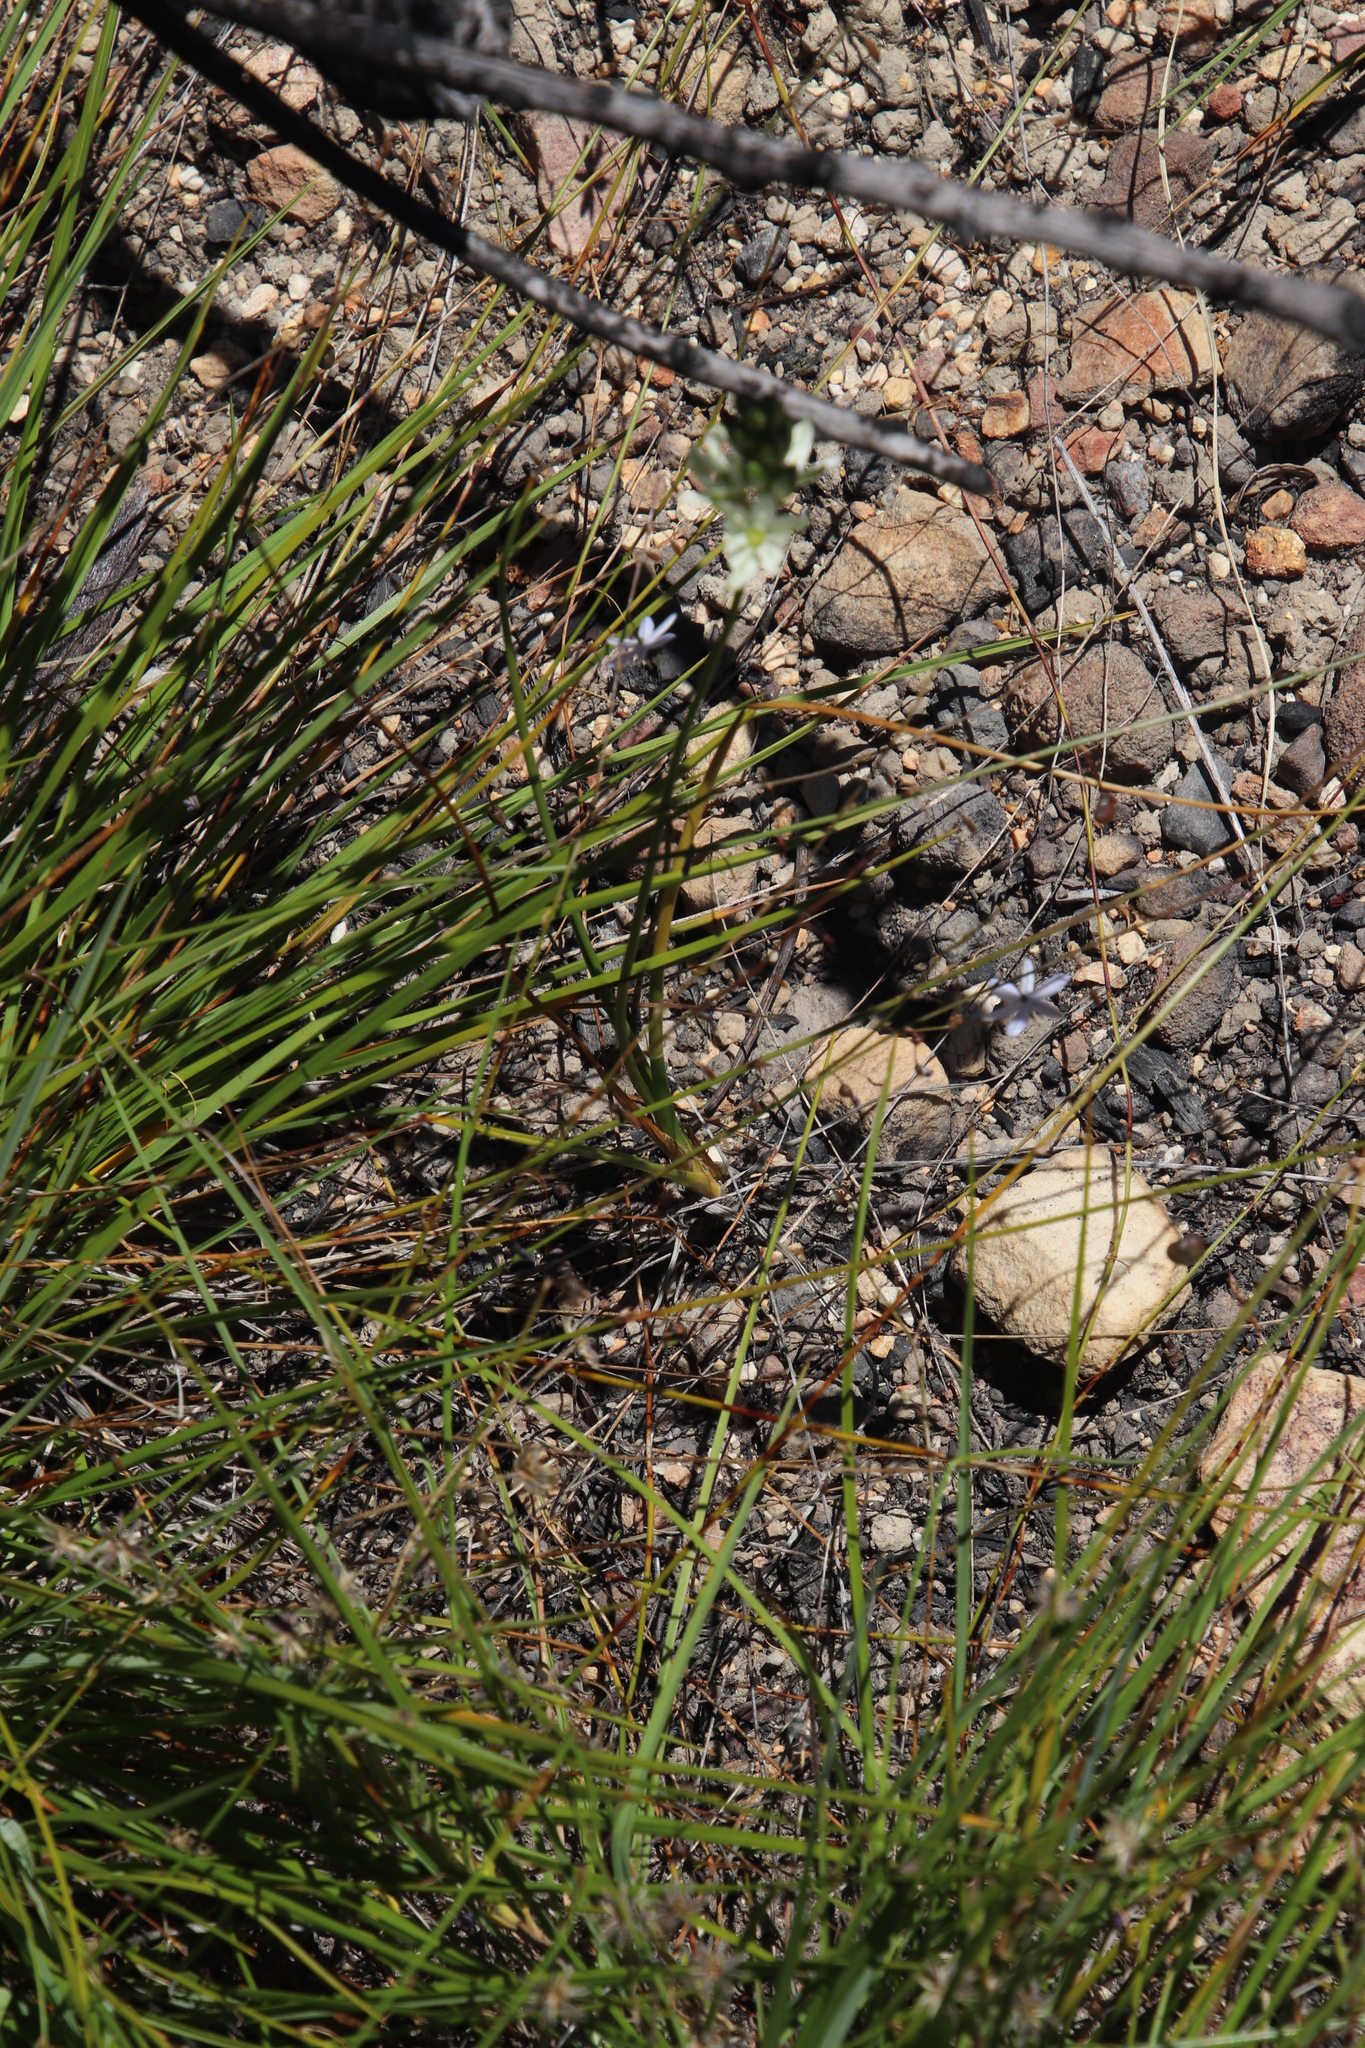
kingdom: Plantae
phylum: Tracheophyta
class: Liliopsida
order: Asparagales
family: Asphodelaceae
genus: Caesia
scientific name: Caesia contorta
